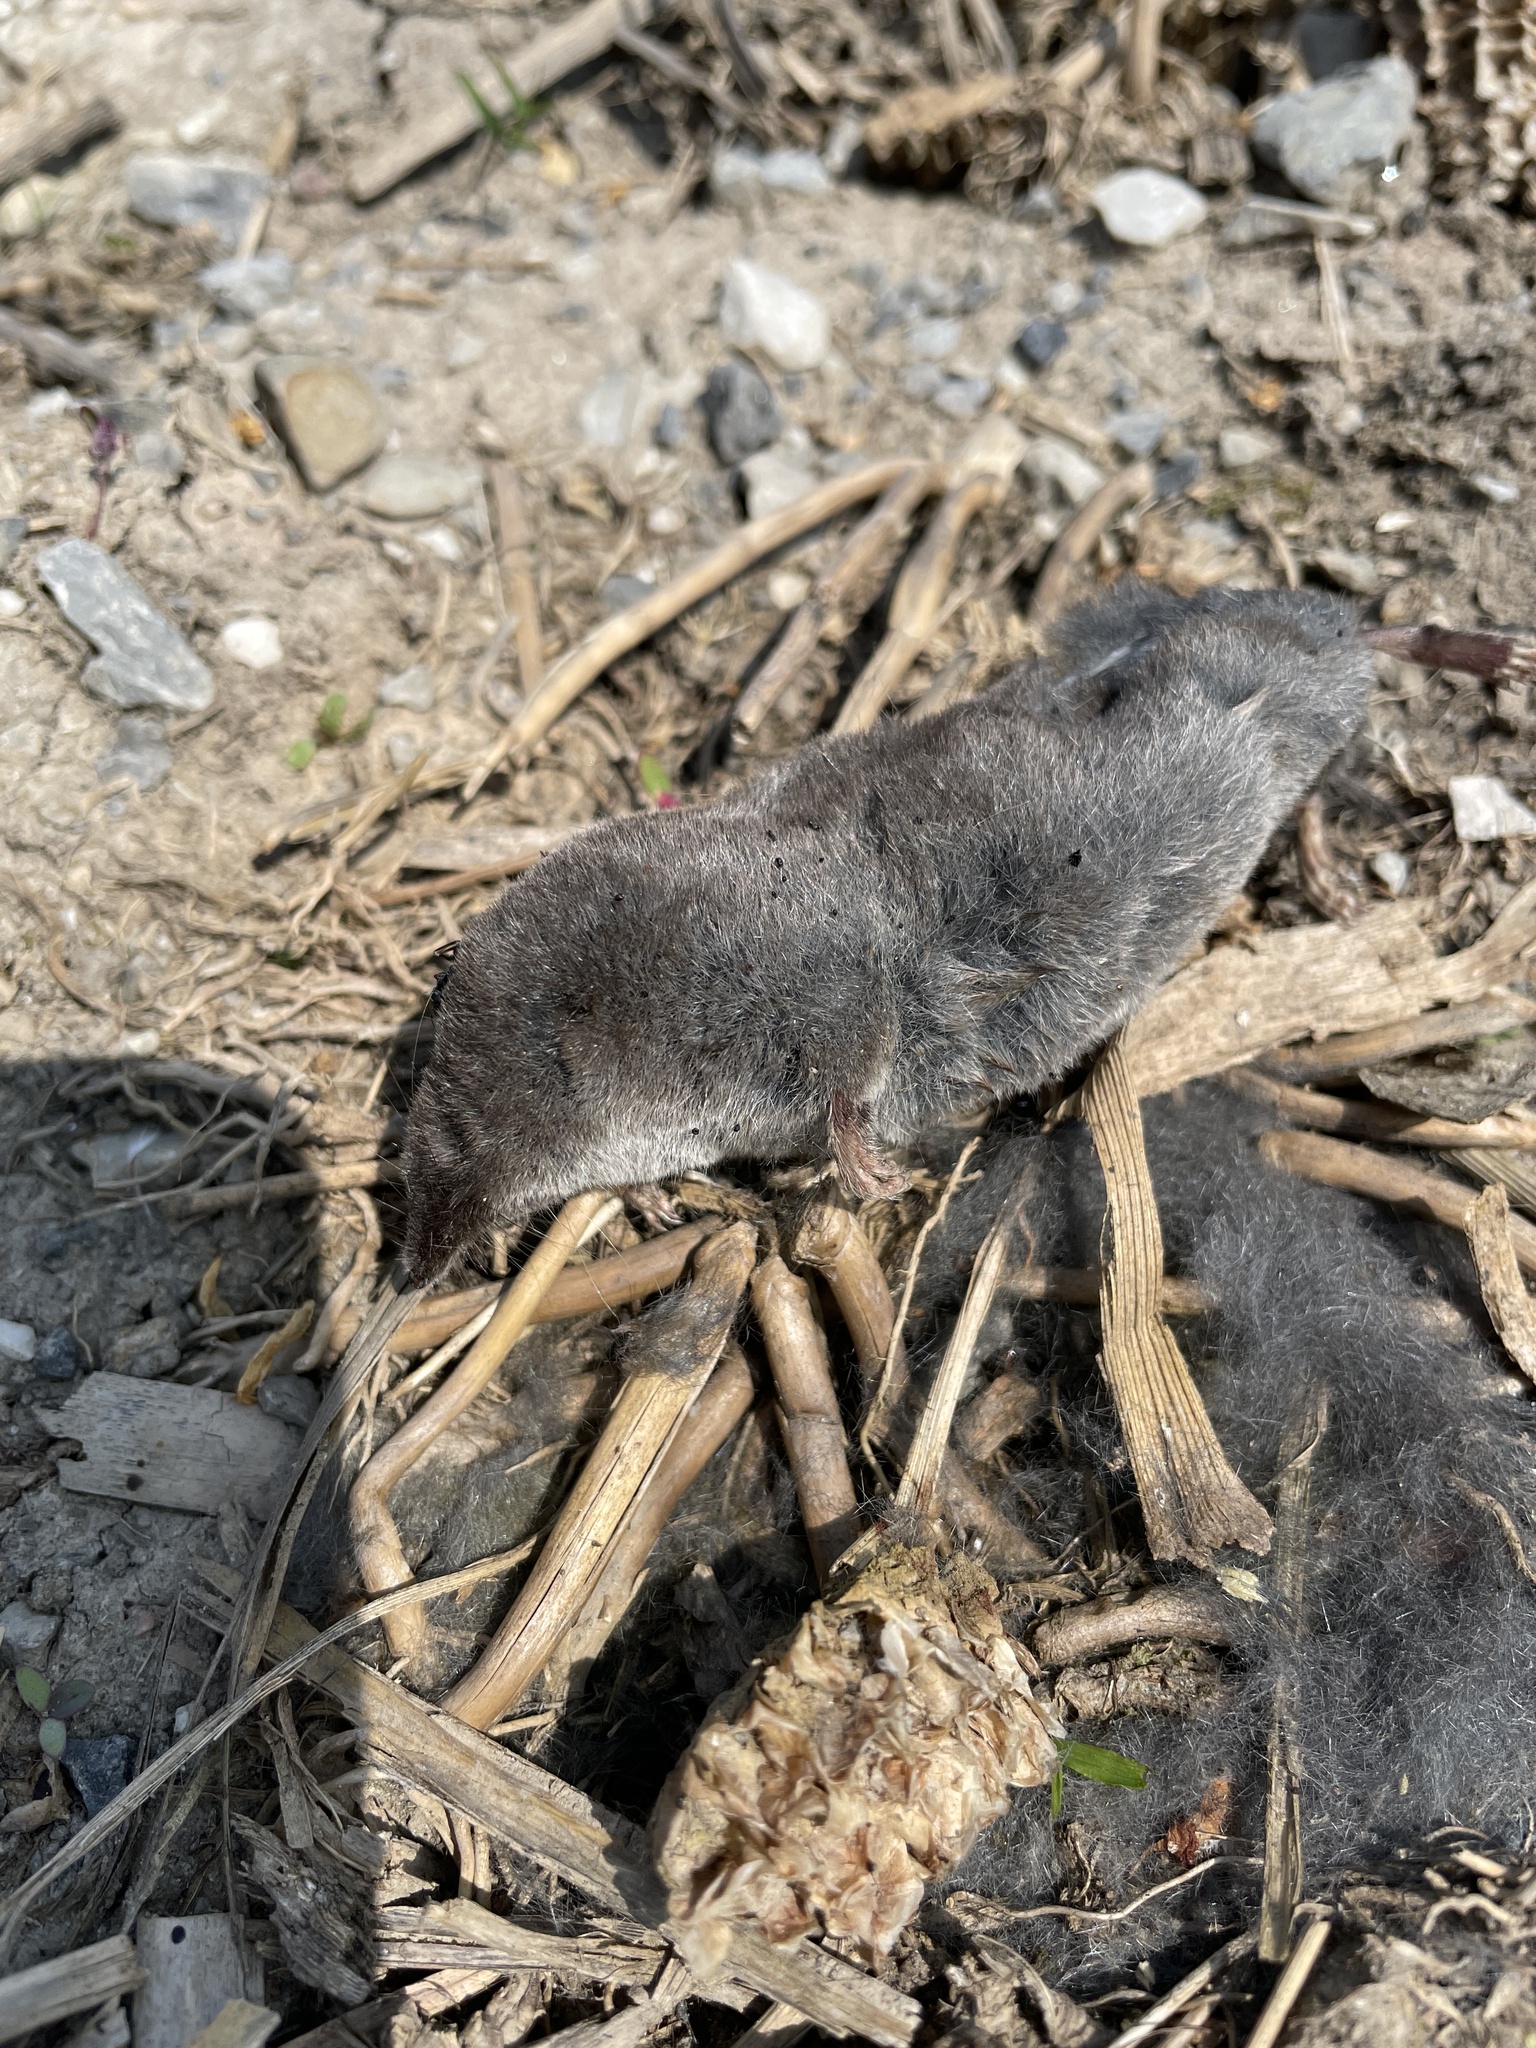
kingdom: Animalia
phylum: Chordata
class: Mammalia
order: Soricomorpha
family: Soricidae
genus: Blarina
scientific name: Blarina brevicauda
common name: Northern short-tailed shrew
